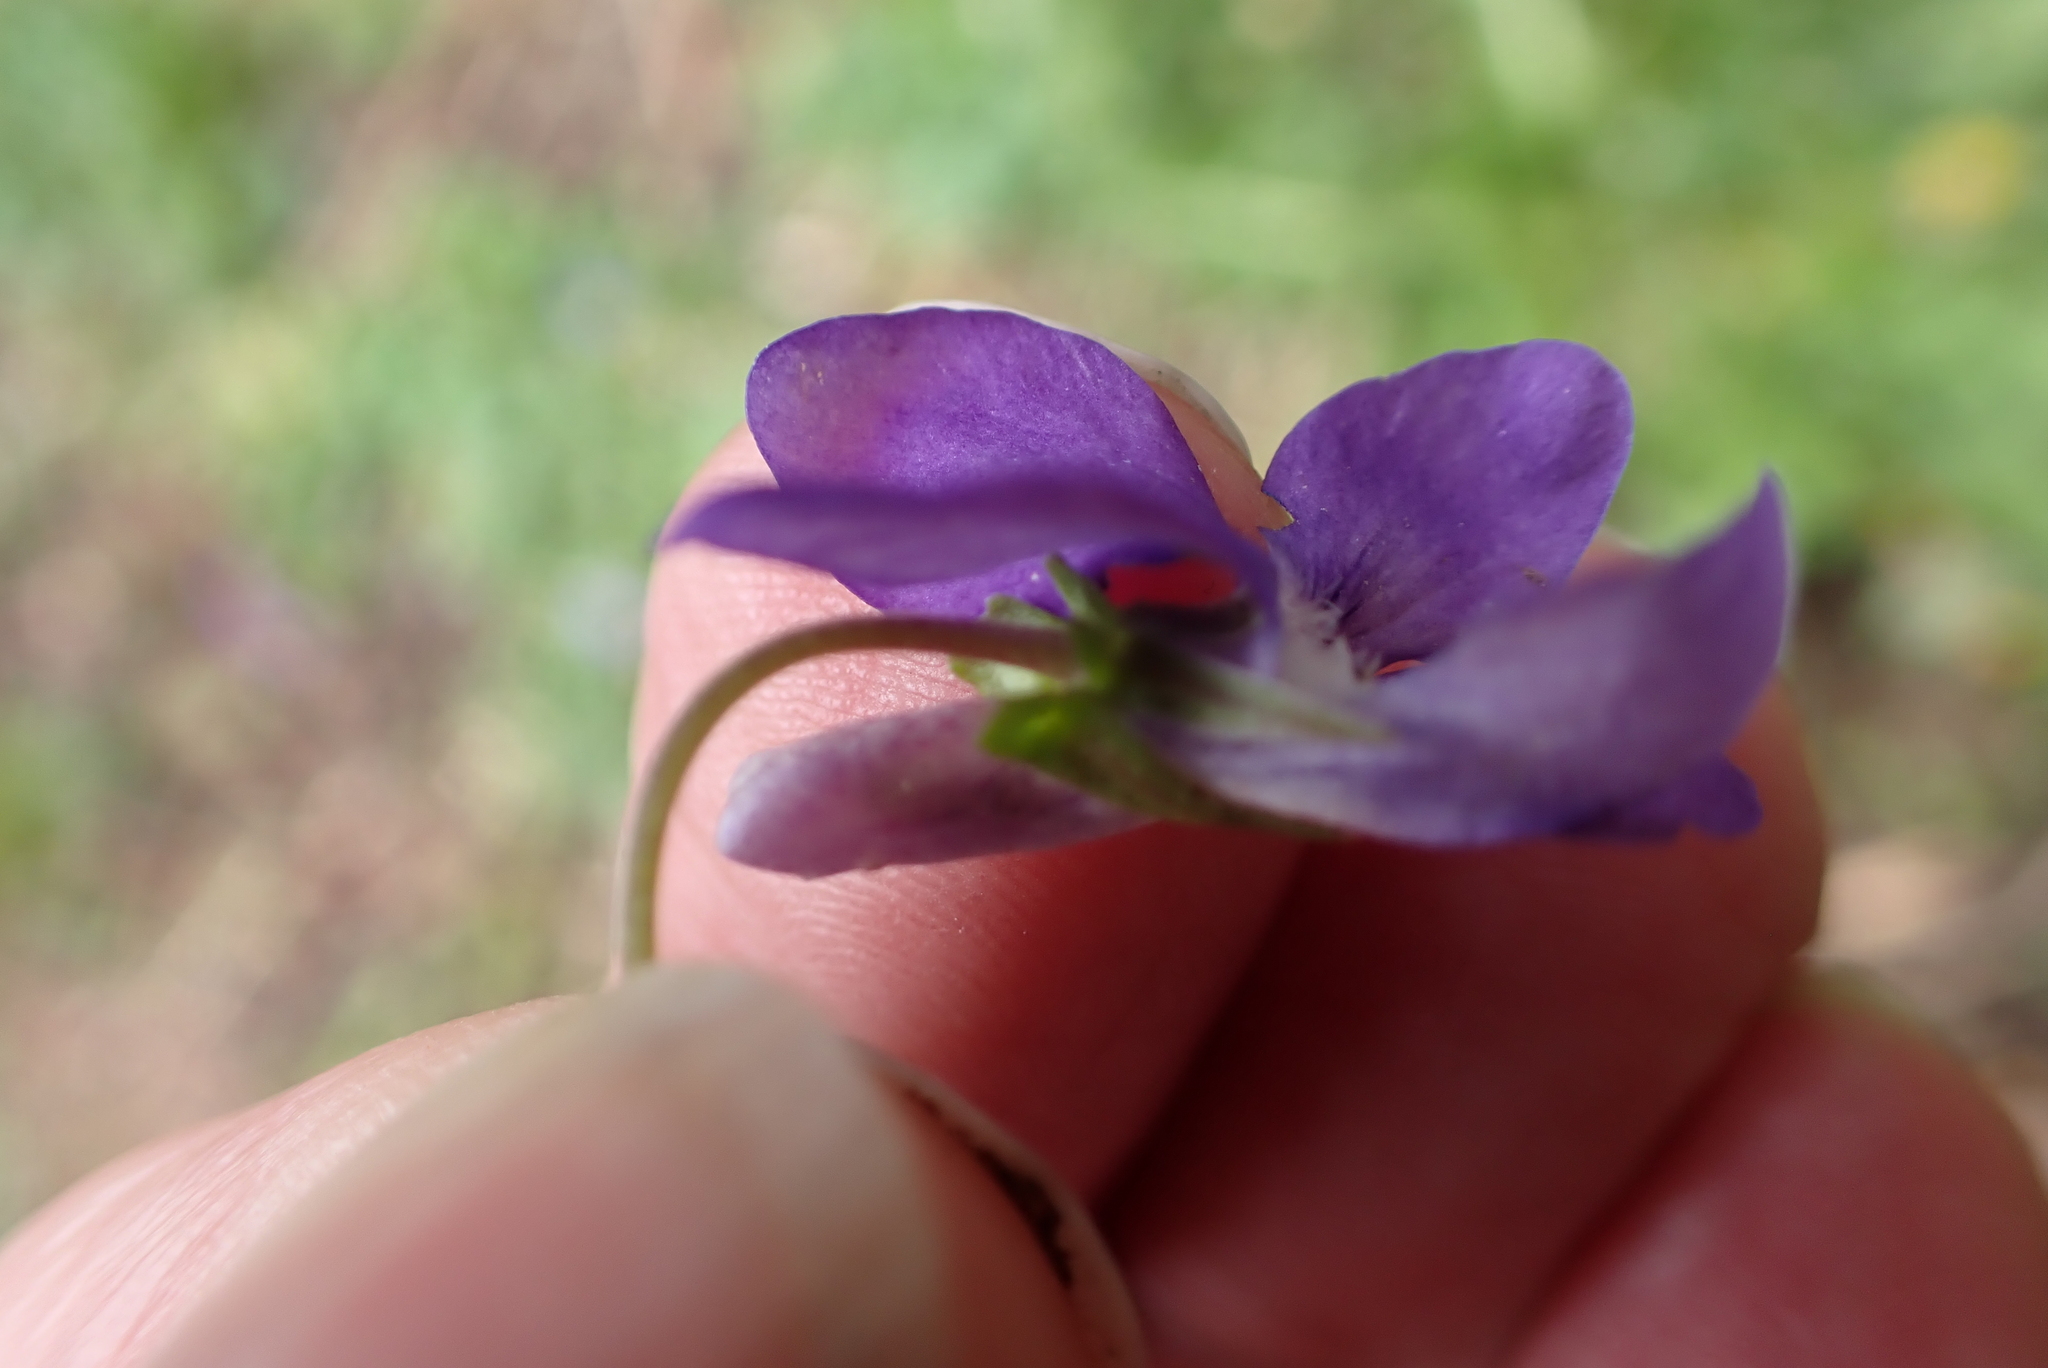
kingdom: Plantae
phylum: Tracheophyta
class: Magnoliopsida
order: Malpighiales
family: Violaceae
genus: Viola
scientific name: Viola riviniana
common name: Common dog-violet
